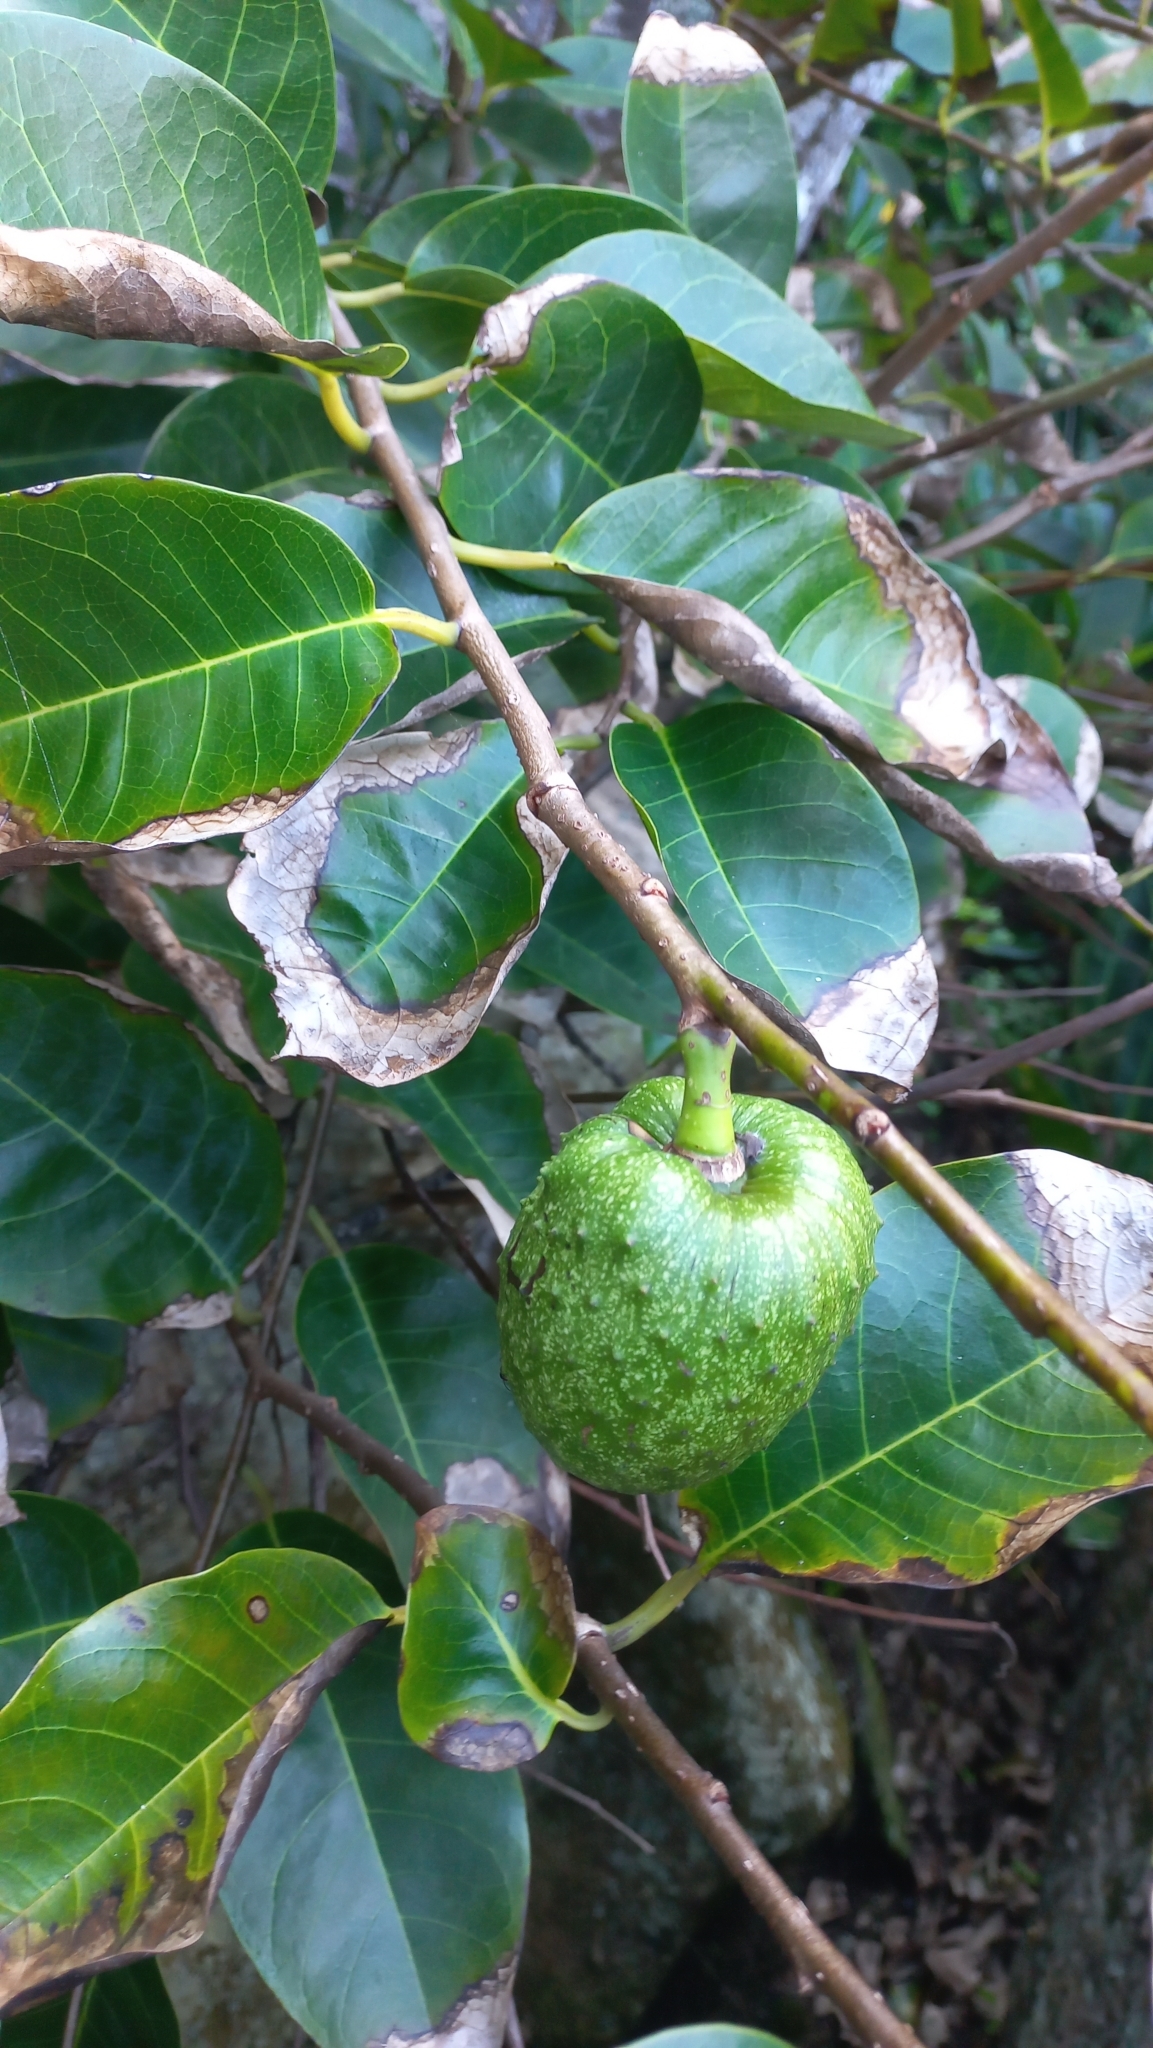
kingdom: Plantae
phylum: Tracheophyta
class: Magnoliopsida
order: Magnoliales
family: Annonaceae
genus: Annona
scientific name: Annona glabra
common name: Monkey apple
